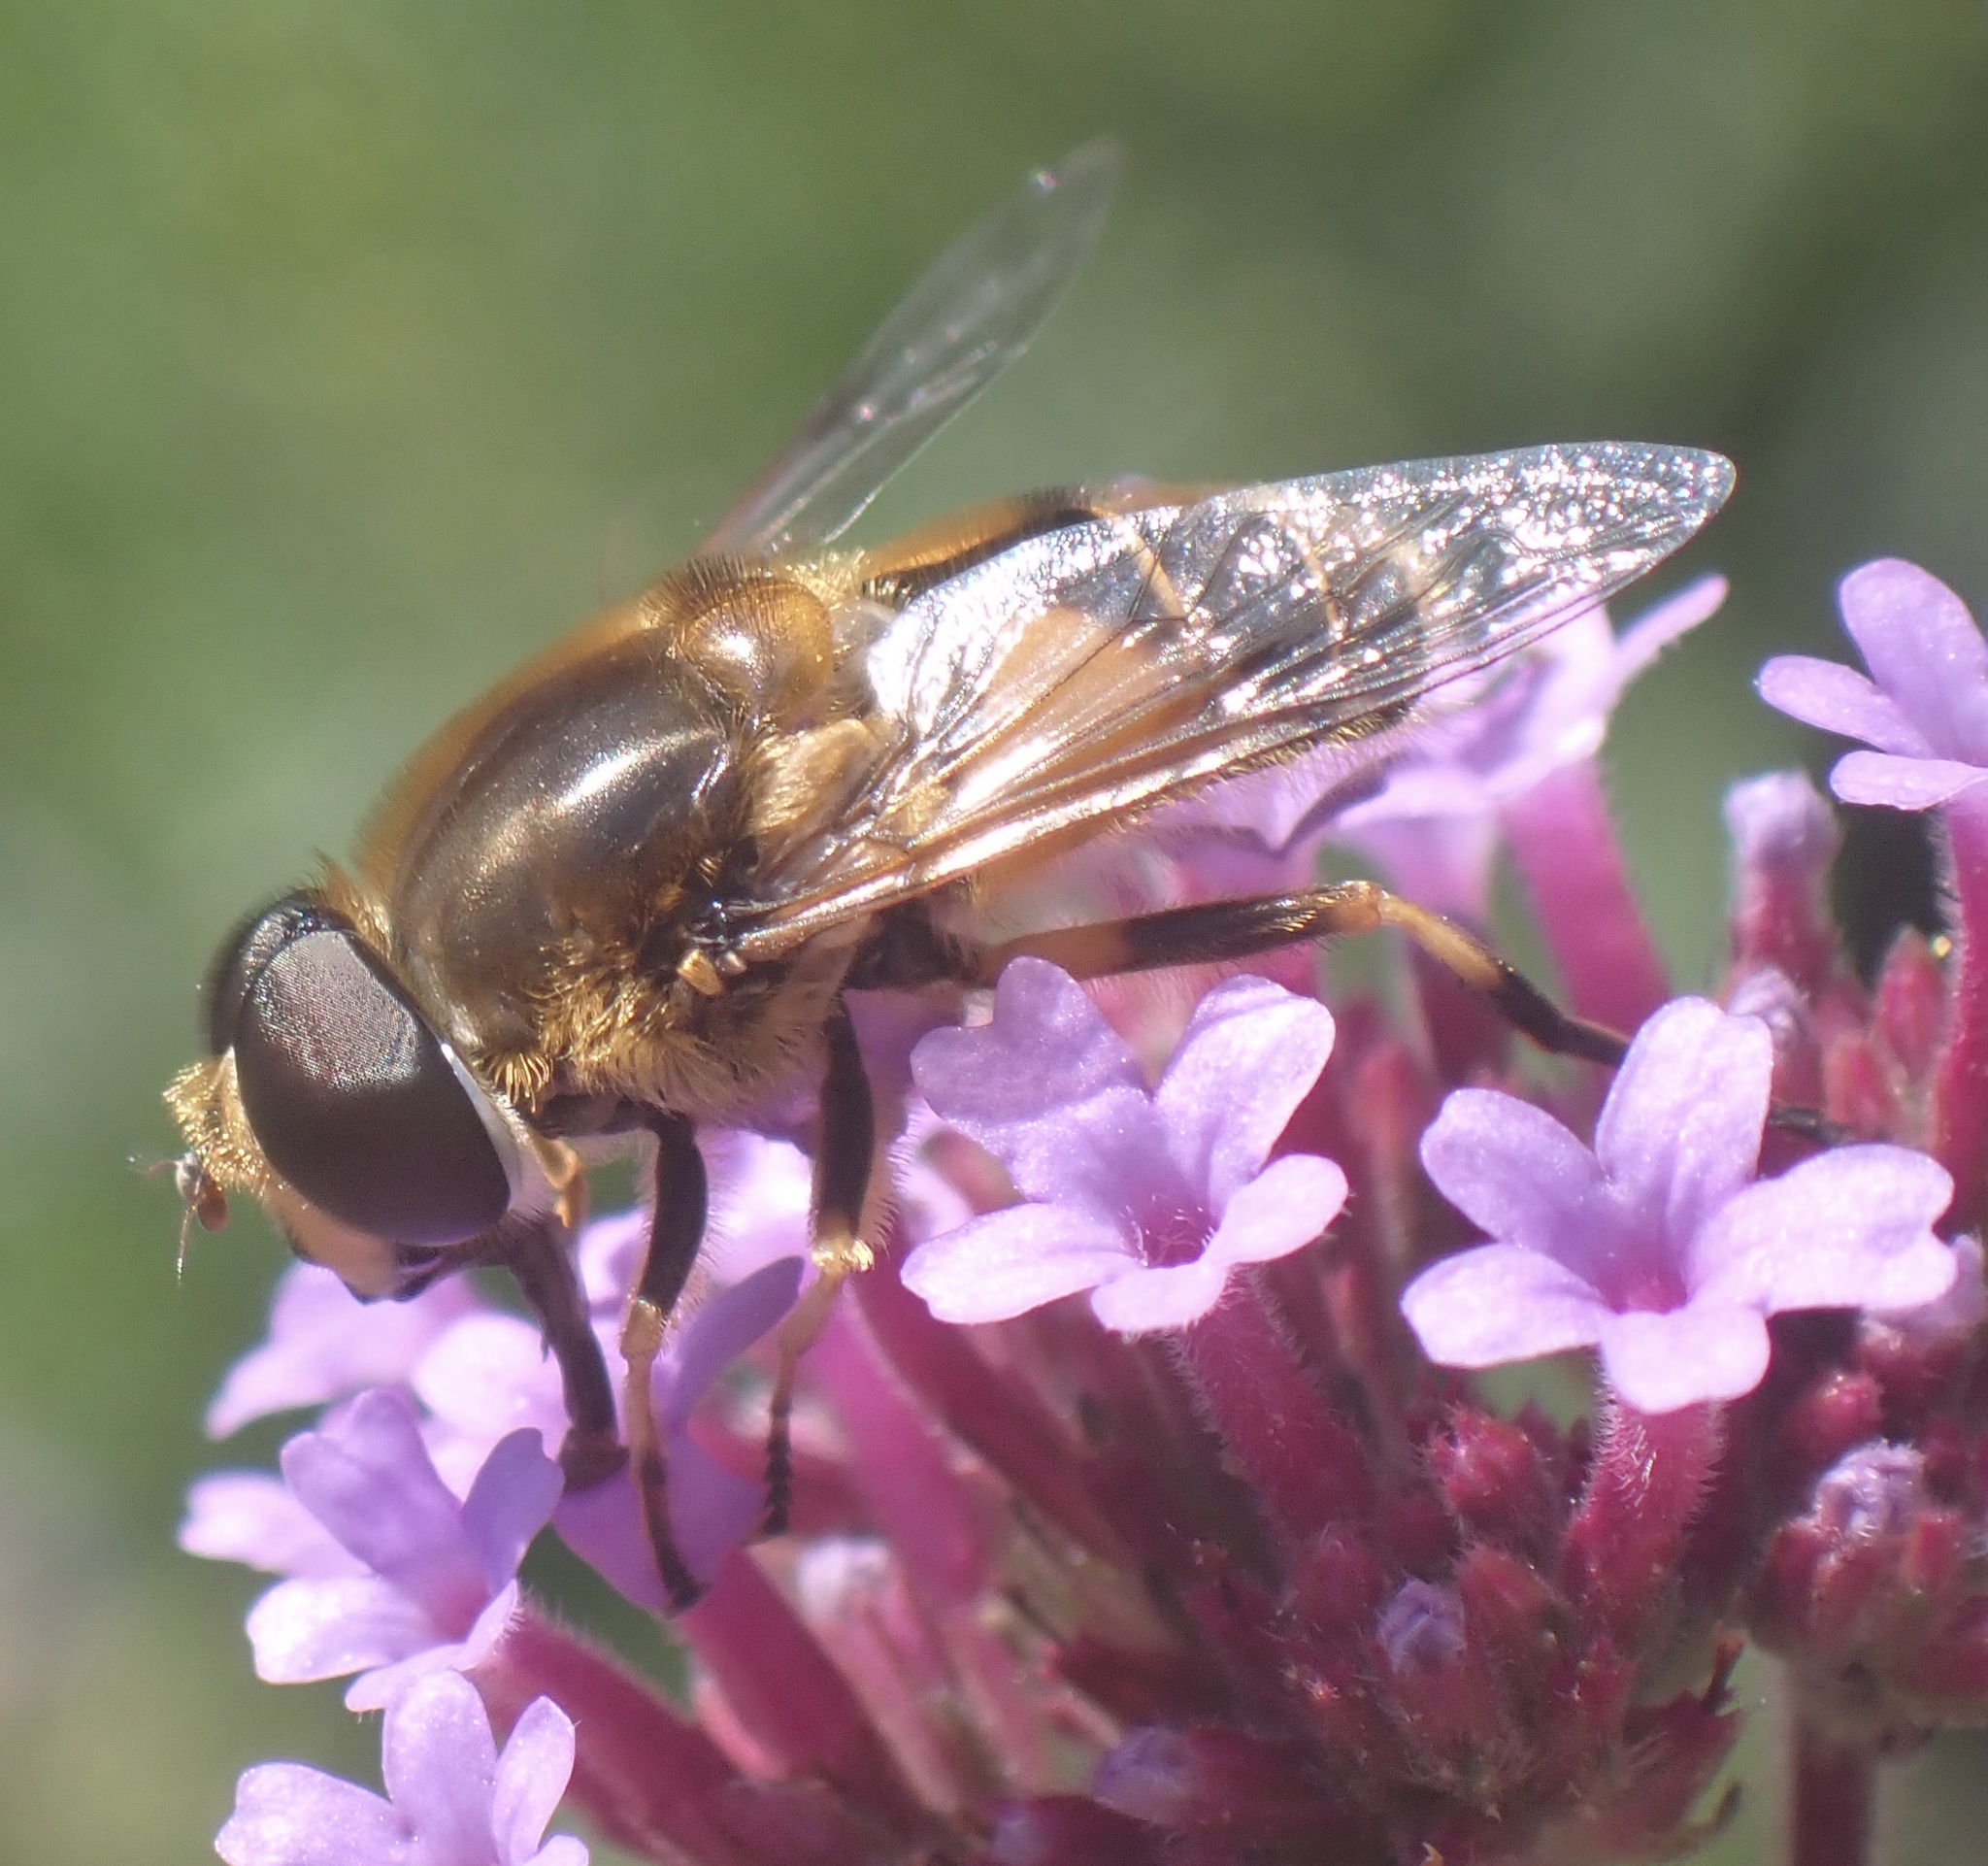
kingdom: Animalia
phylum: Arthropoda
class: Insecta
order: Diptera
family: Syrphidae
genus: Cheilosia
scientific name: Cheilosia morio
